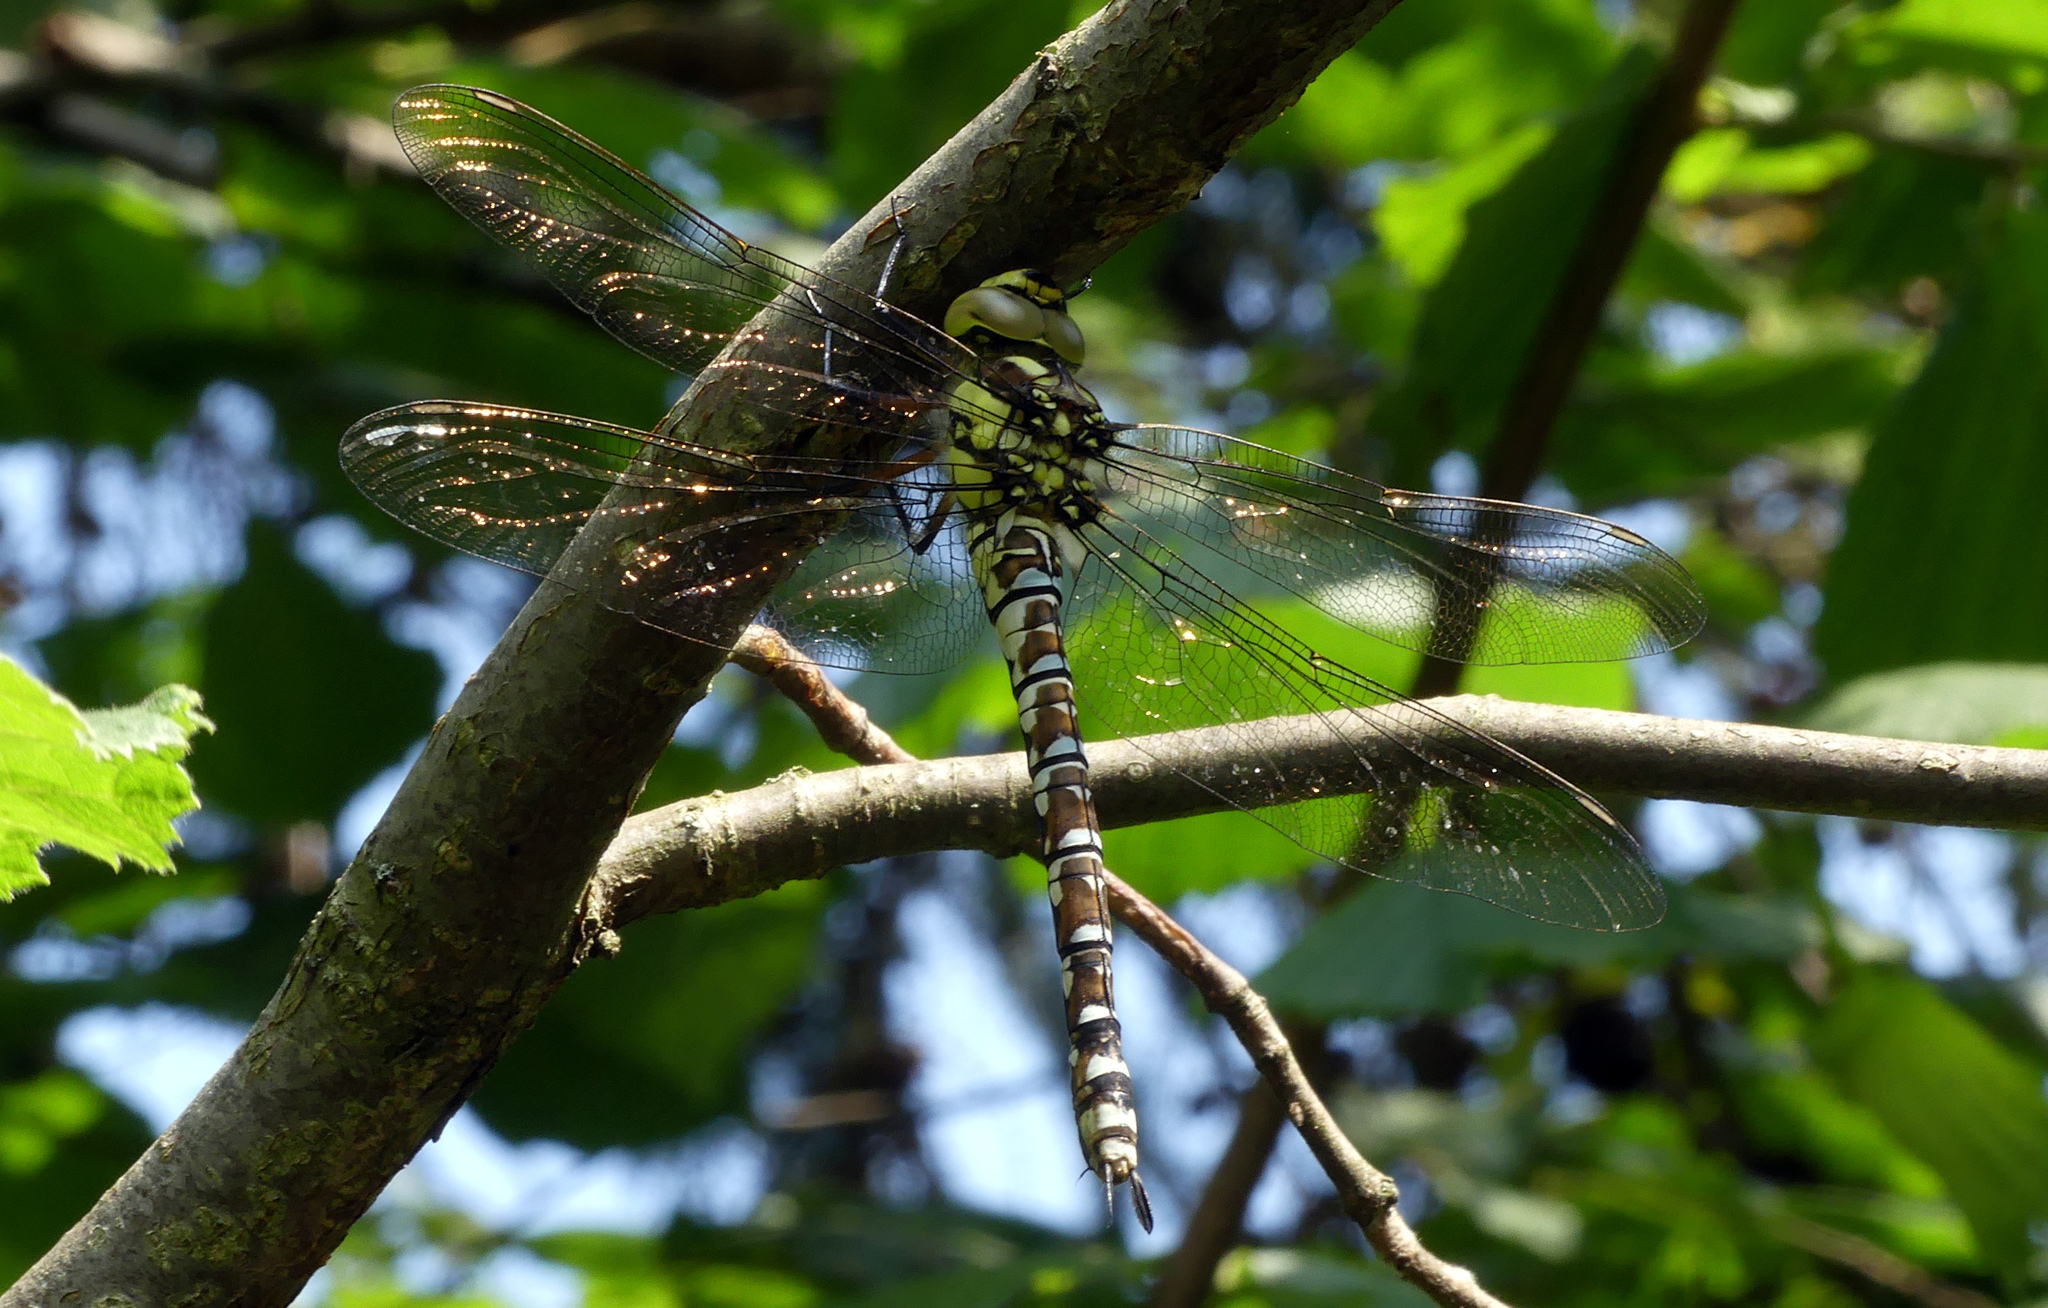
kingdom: Animalia
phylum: Arthropoda
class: Insecta
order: Odonata
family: Aeshnidae
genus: Aeshna
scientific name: Aeshna cyanea
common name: Southern hawker
